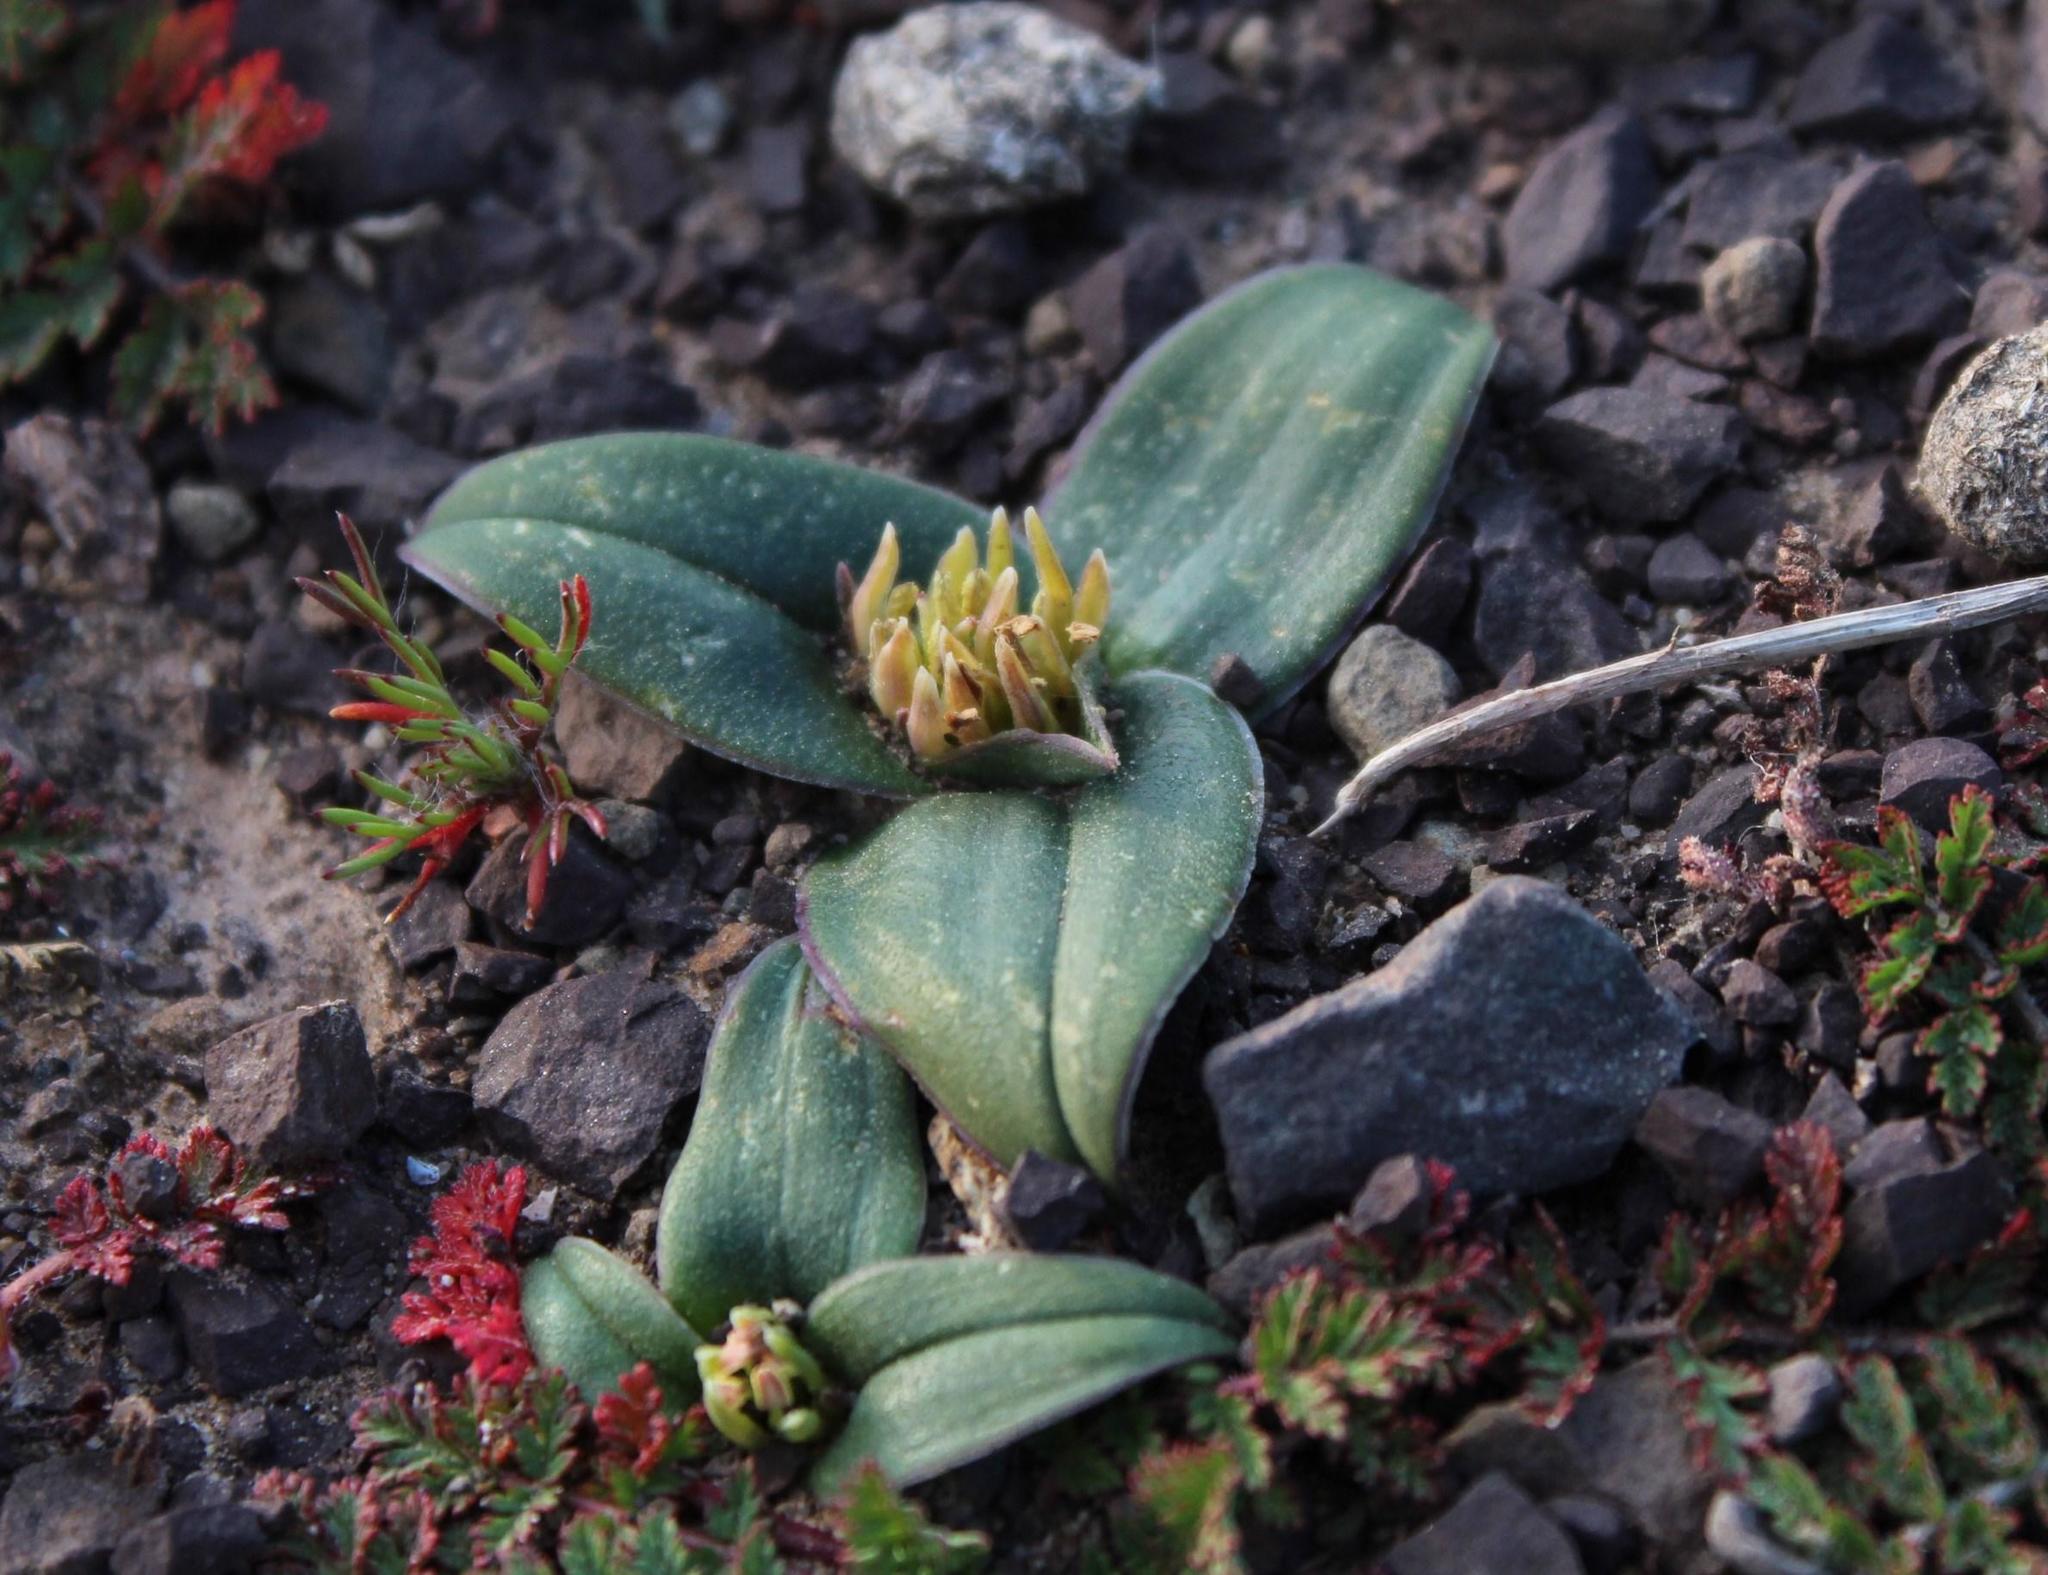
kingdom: Plantae
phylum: Tracheophyta
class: Liliopsida
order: Liliales
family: Colchicaceae
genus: Colchicum
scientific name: Colchicum cuspidatum
